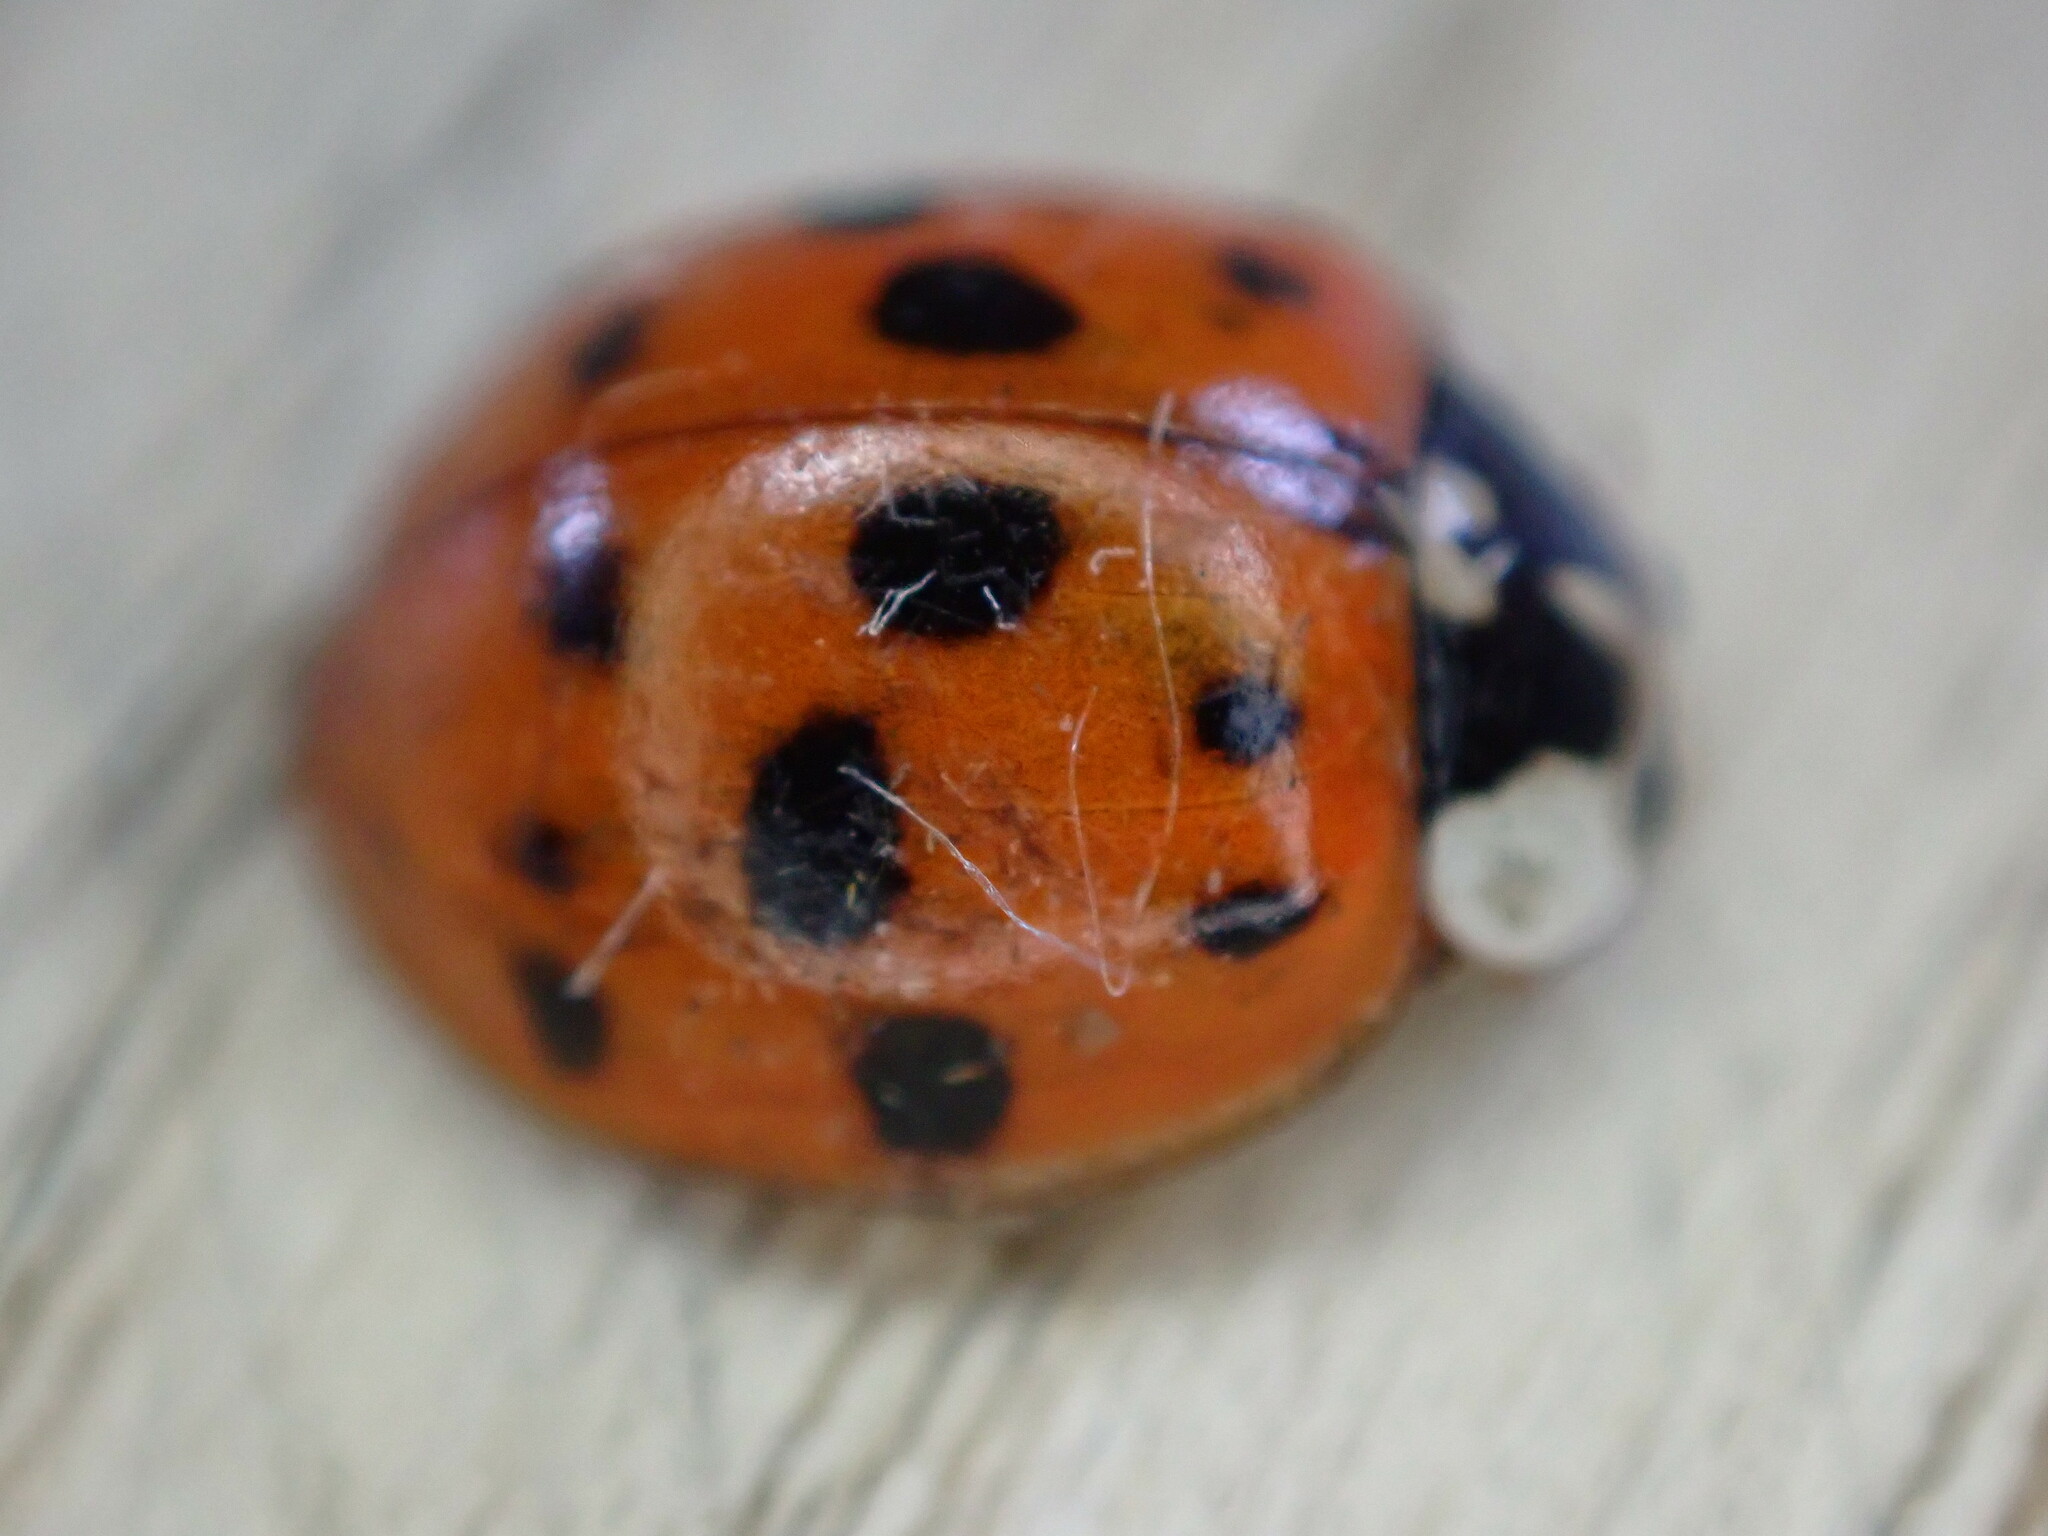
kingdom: Animalia
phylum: Arthropoda
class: Insecta
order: Coleoptera
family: Coccinellidae
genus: Harmonia
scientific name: Harmonia axyridis
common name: Harlequin ladybird
